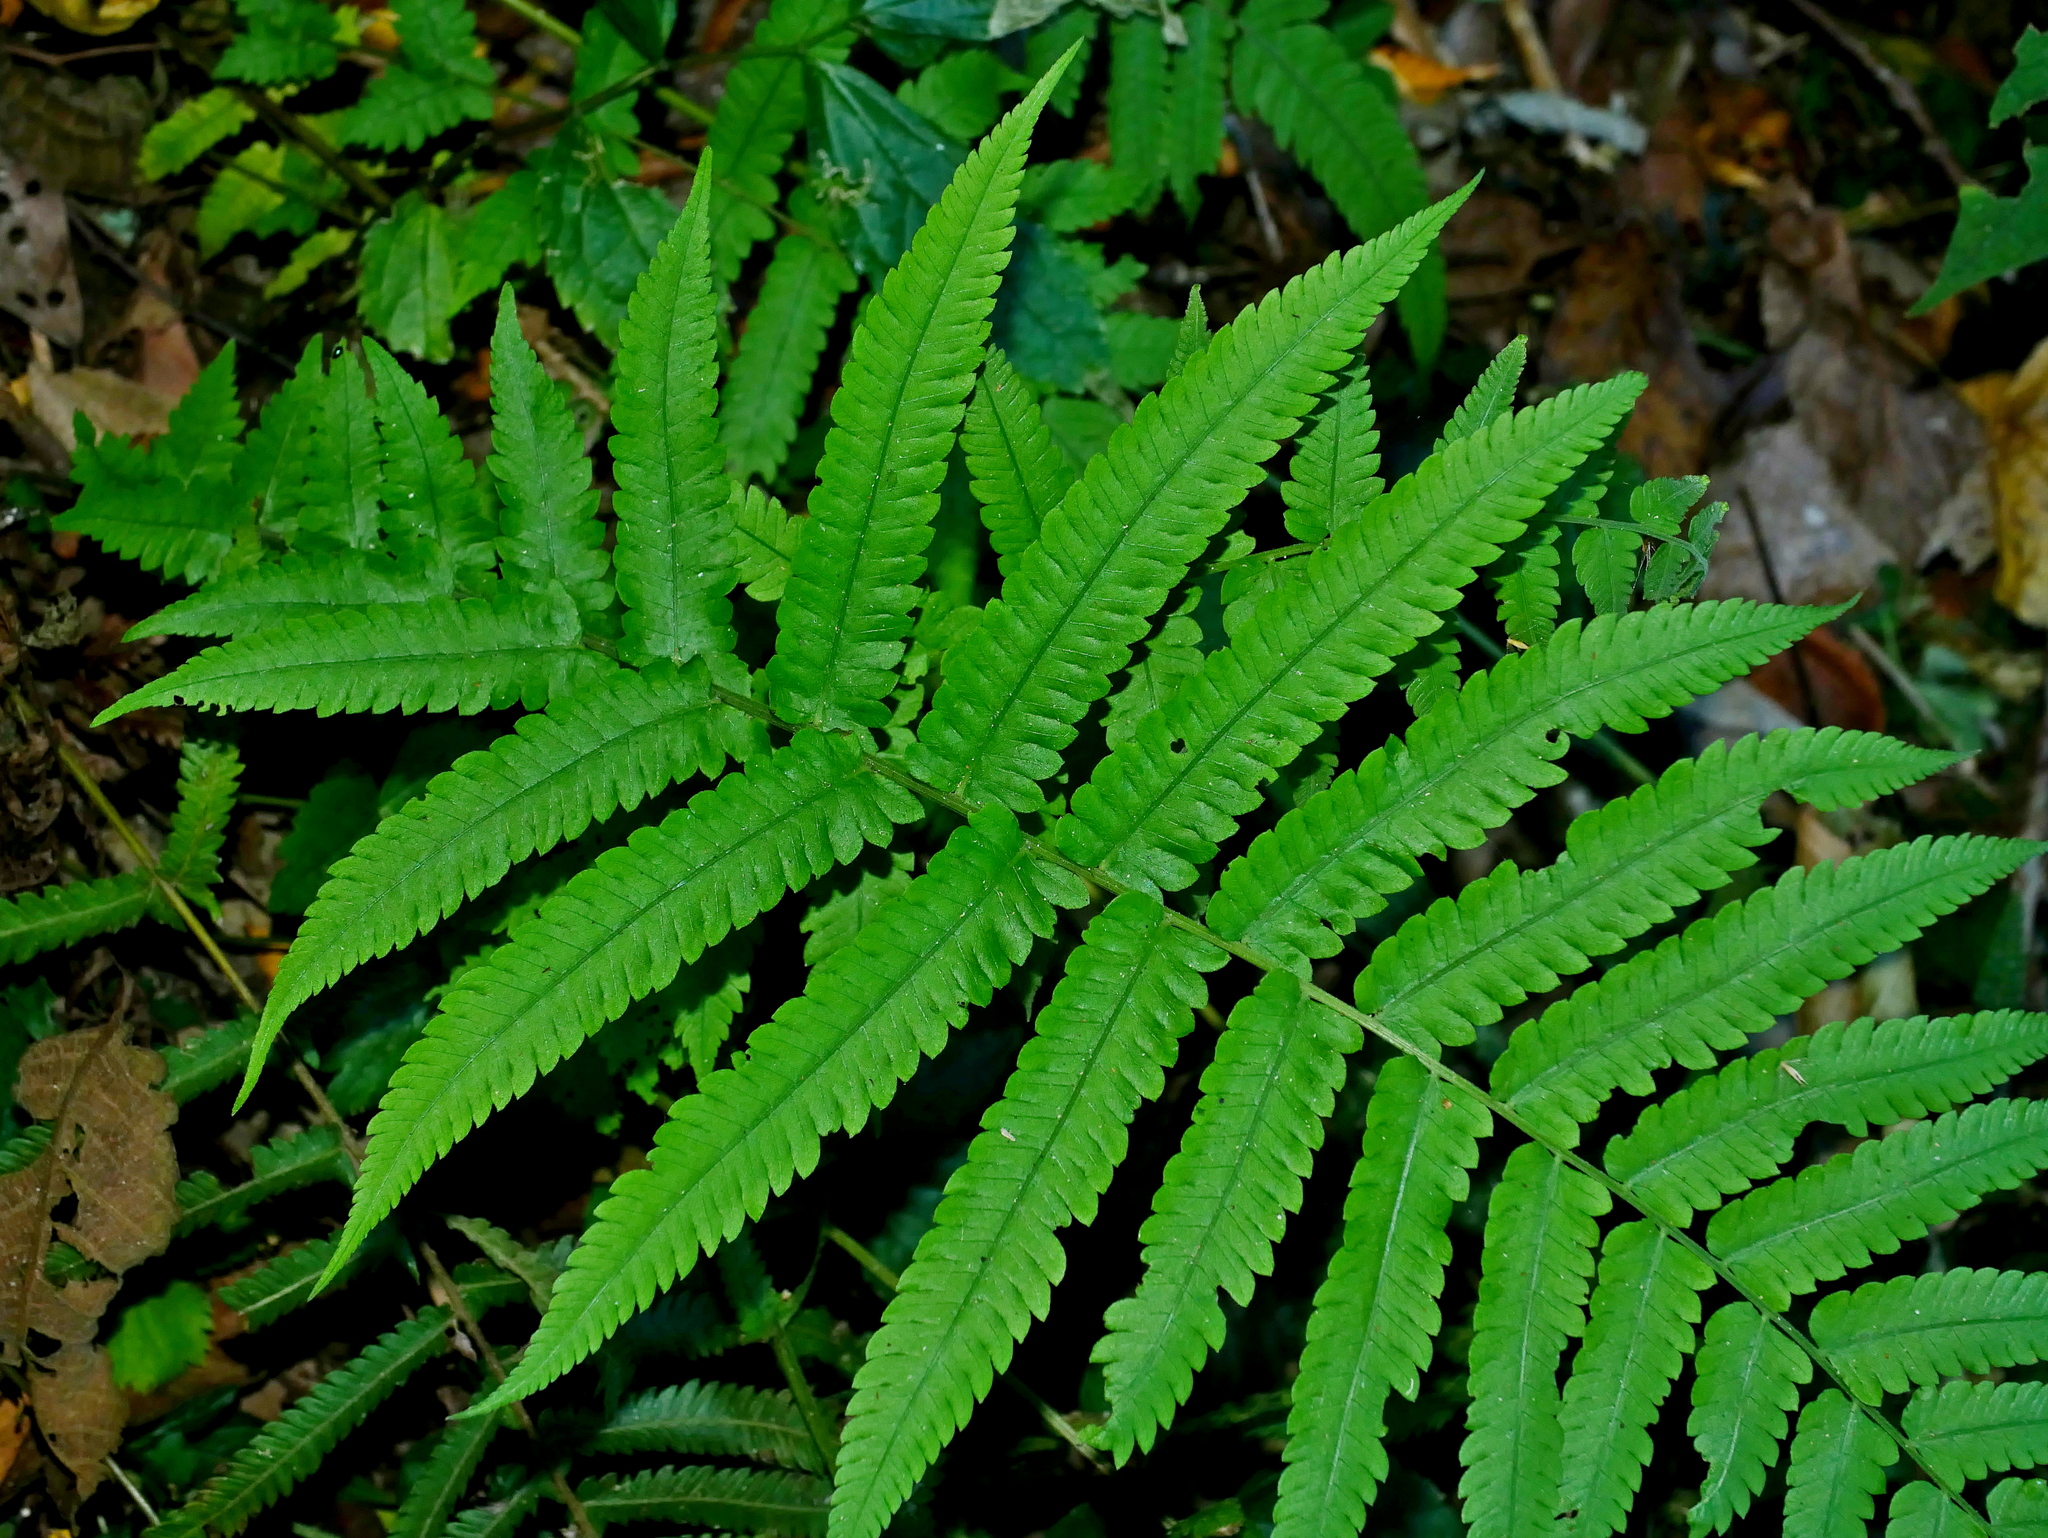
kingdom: Plantae
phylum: Tracheophyta
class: Polypodiopsida
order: Polypodiales
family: Thelypteridaceae
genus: Christella
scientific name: Christella jaculosa
